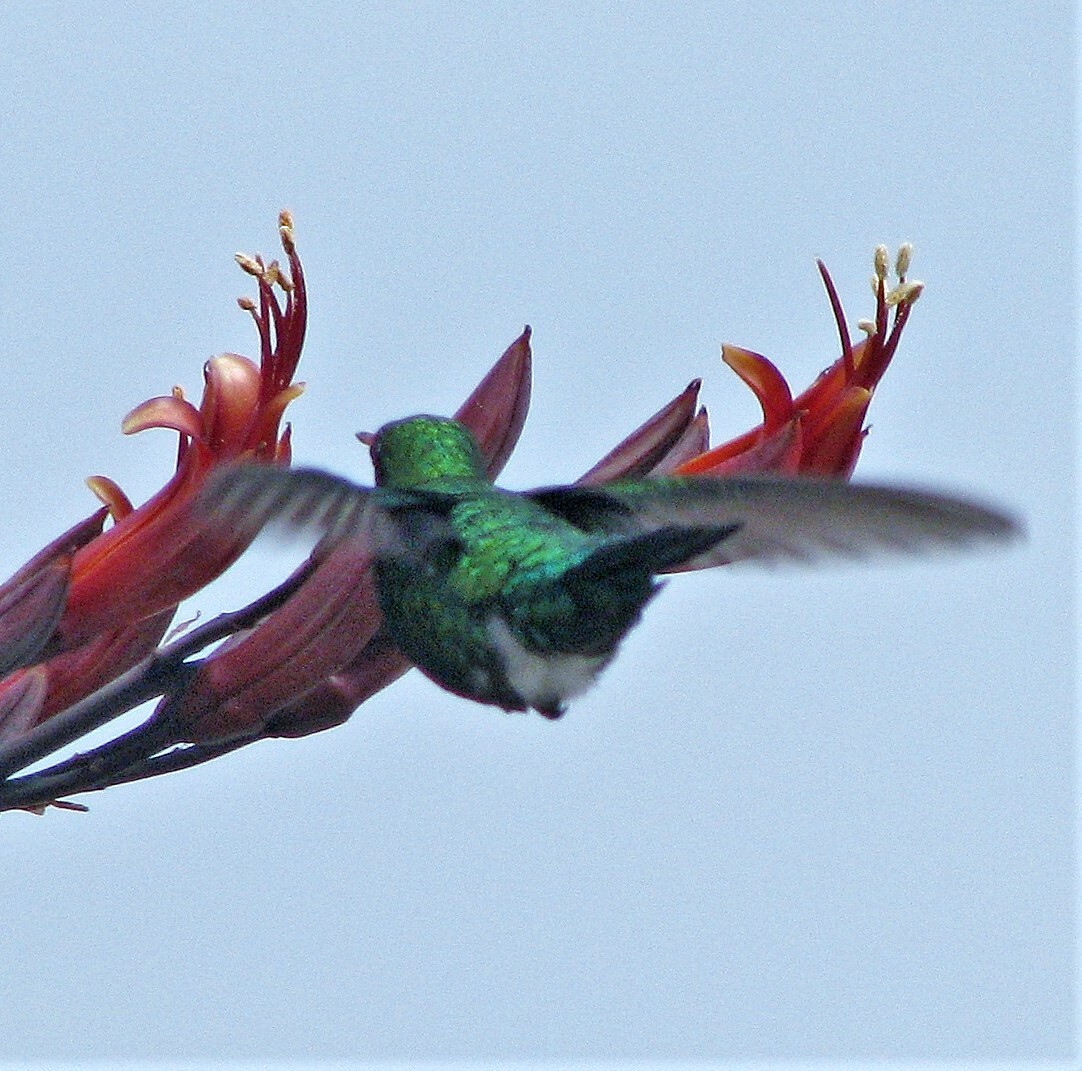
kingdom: Animalia
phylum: Chordata
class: Aves
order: Apodiformes
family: Trochilidae
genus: Chlorostilbon
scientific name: Chlorostilbon lucidus
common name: Glittering-bellied emerald
